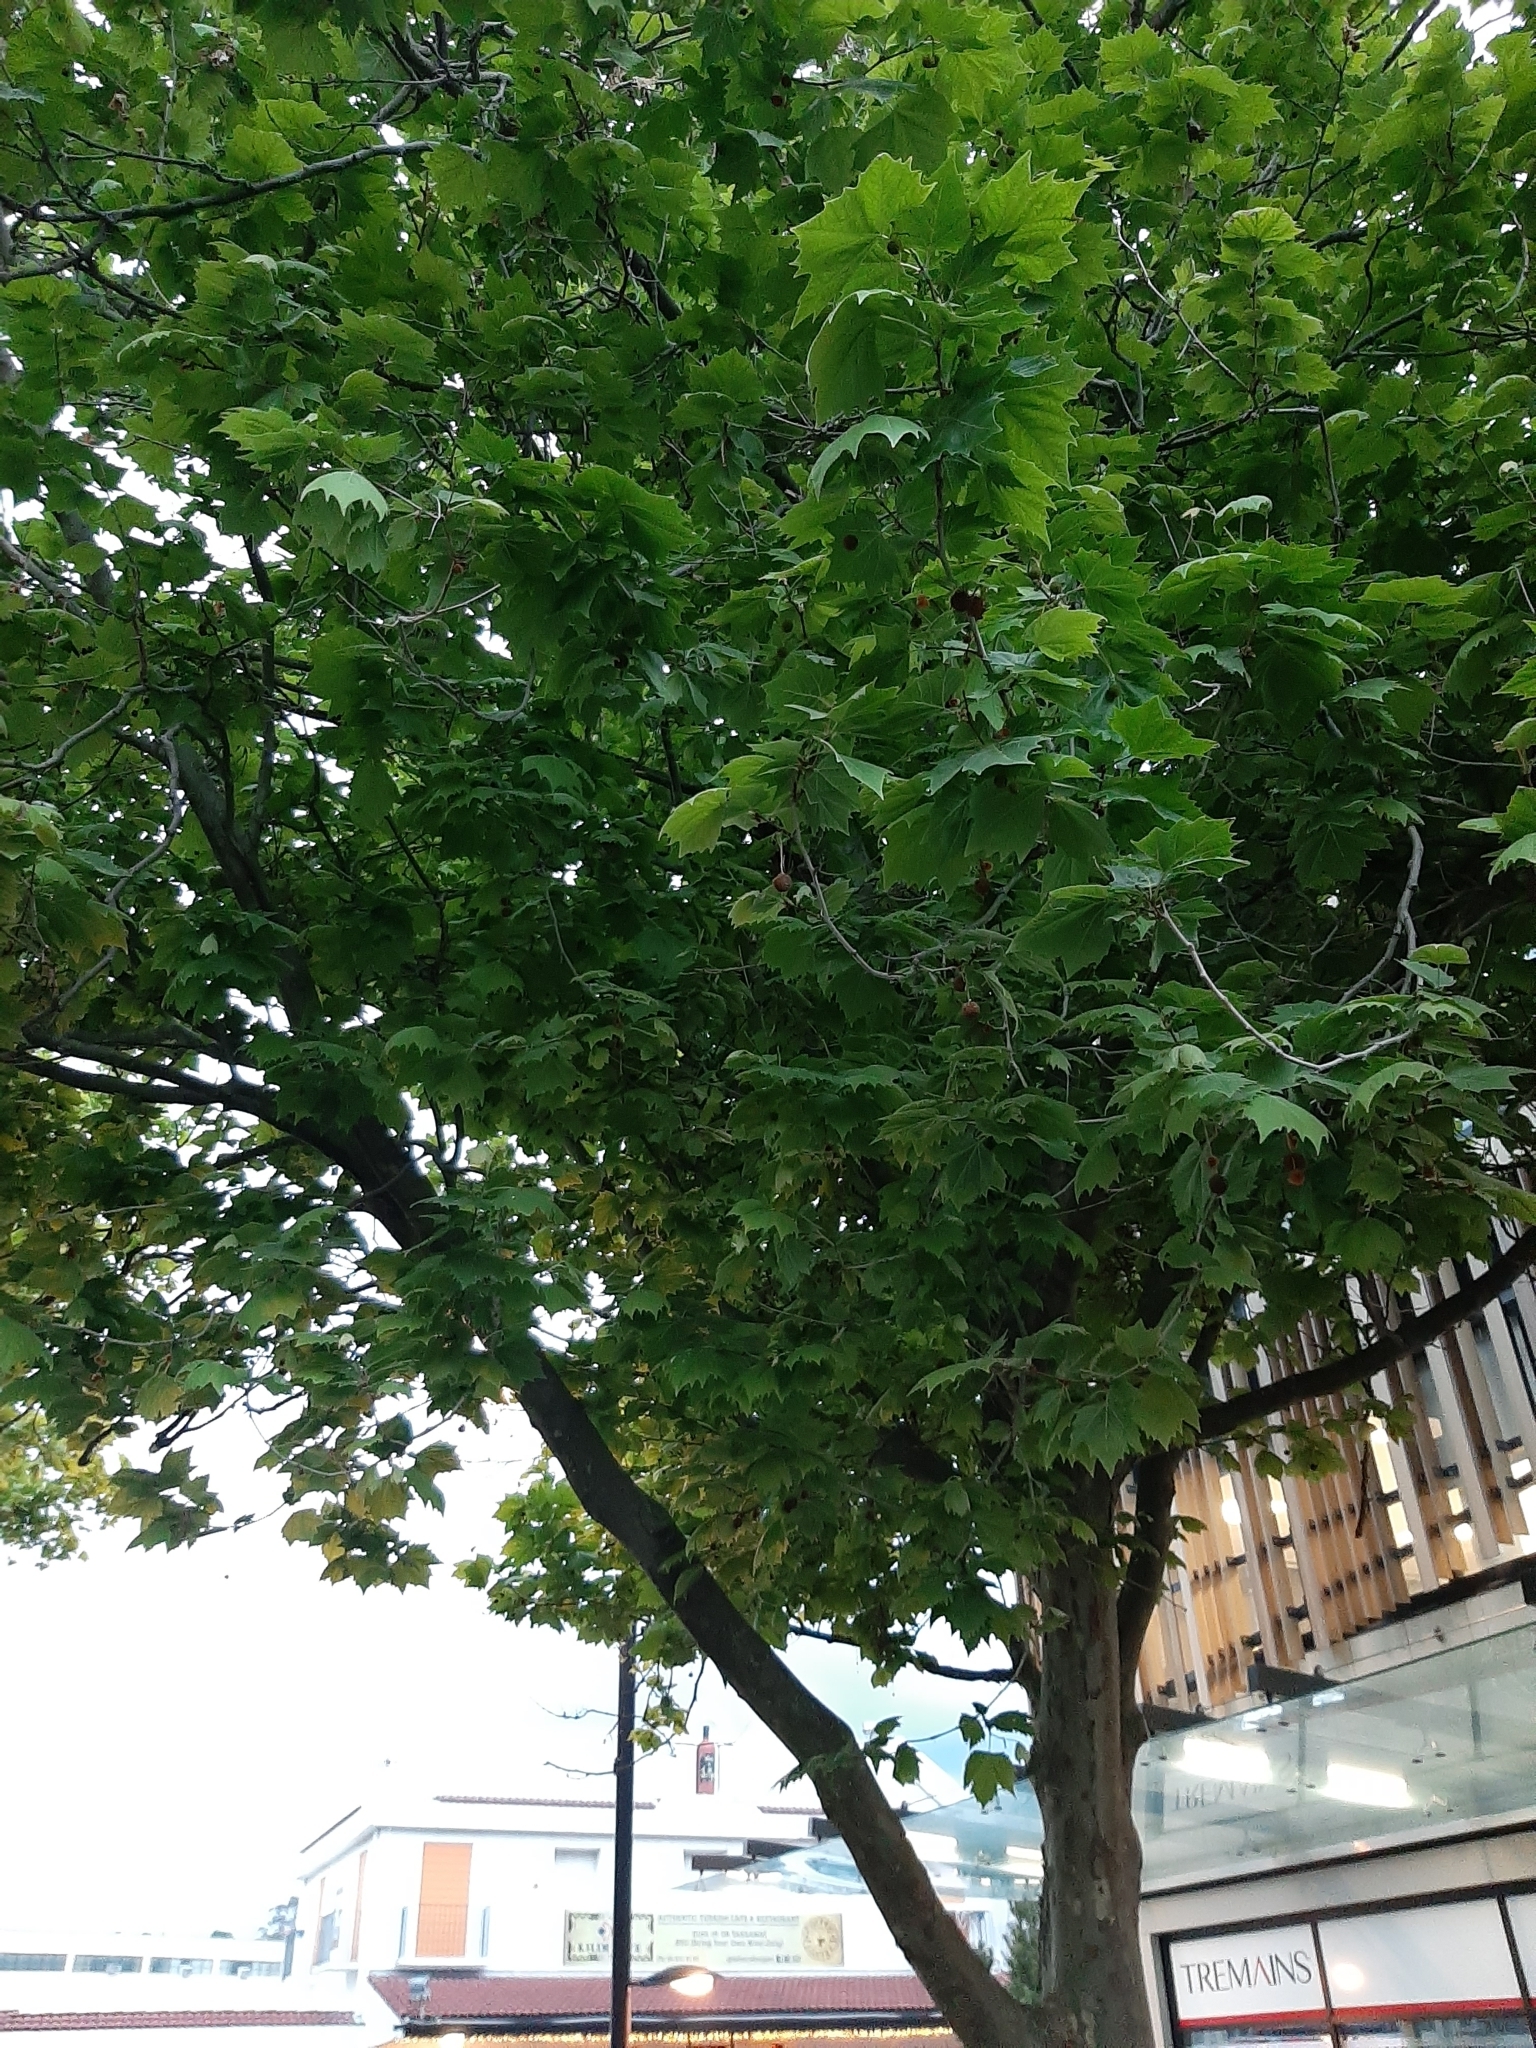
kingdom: Animalia
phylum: Chordata
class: Aves
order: Passeriformes
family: Passeridae
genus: Passer
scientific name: Passer domesticus
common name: House sparrow
